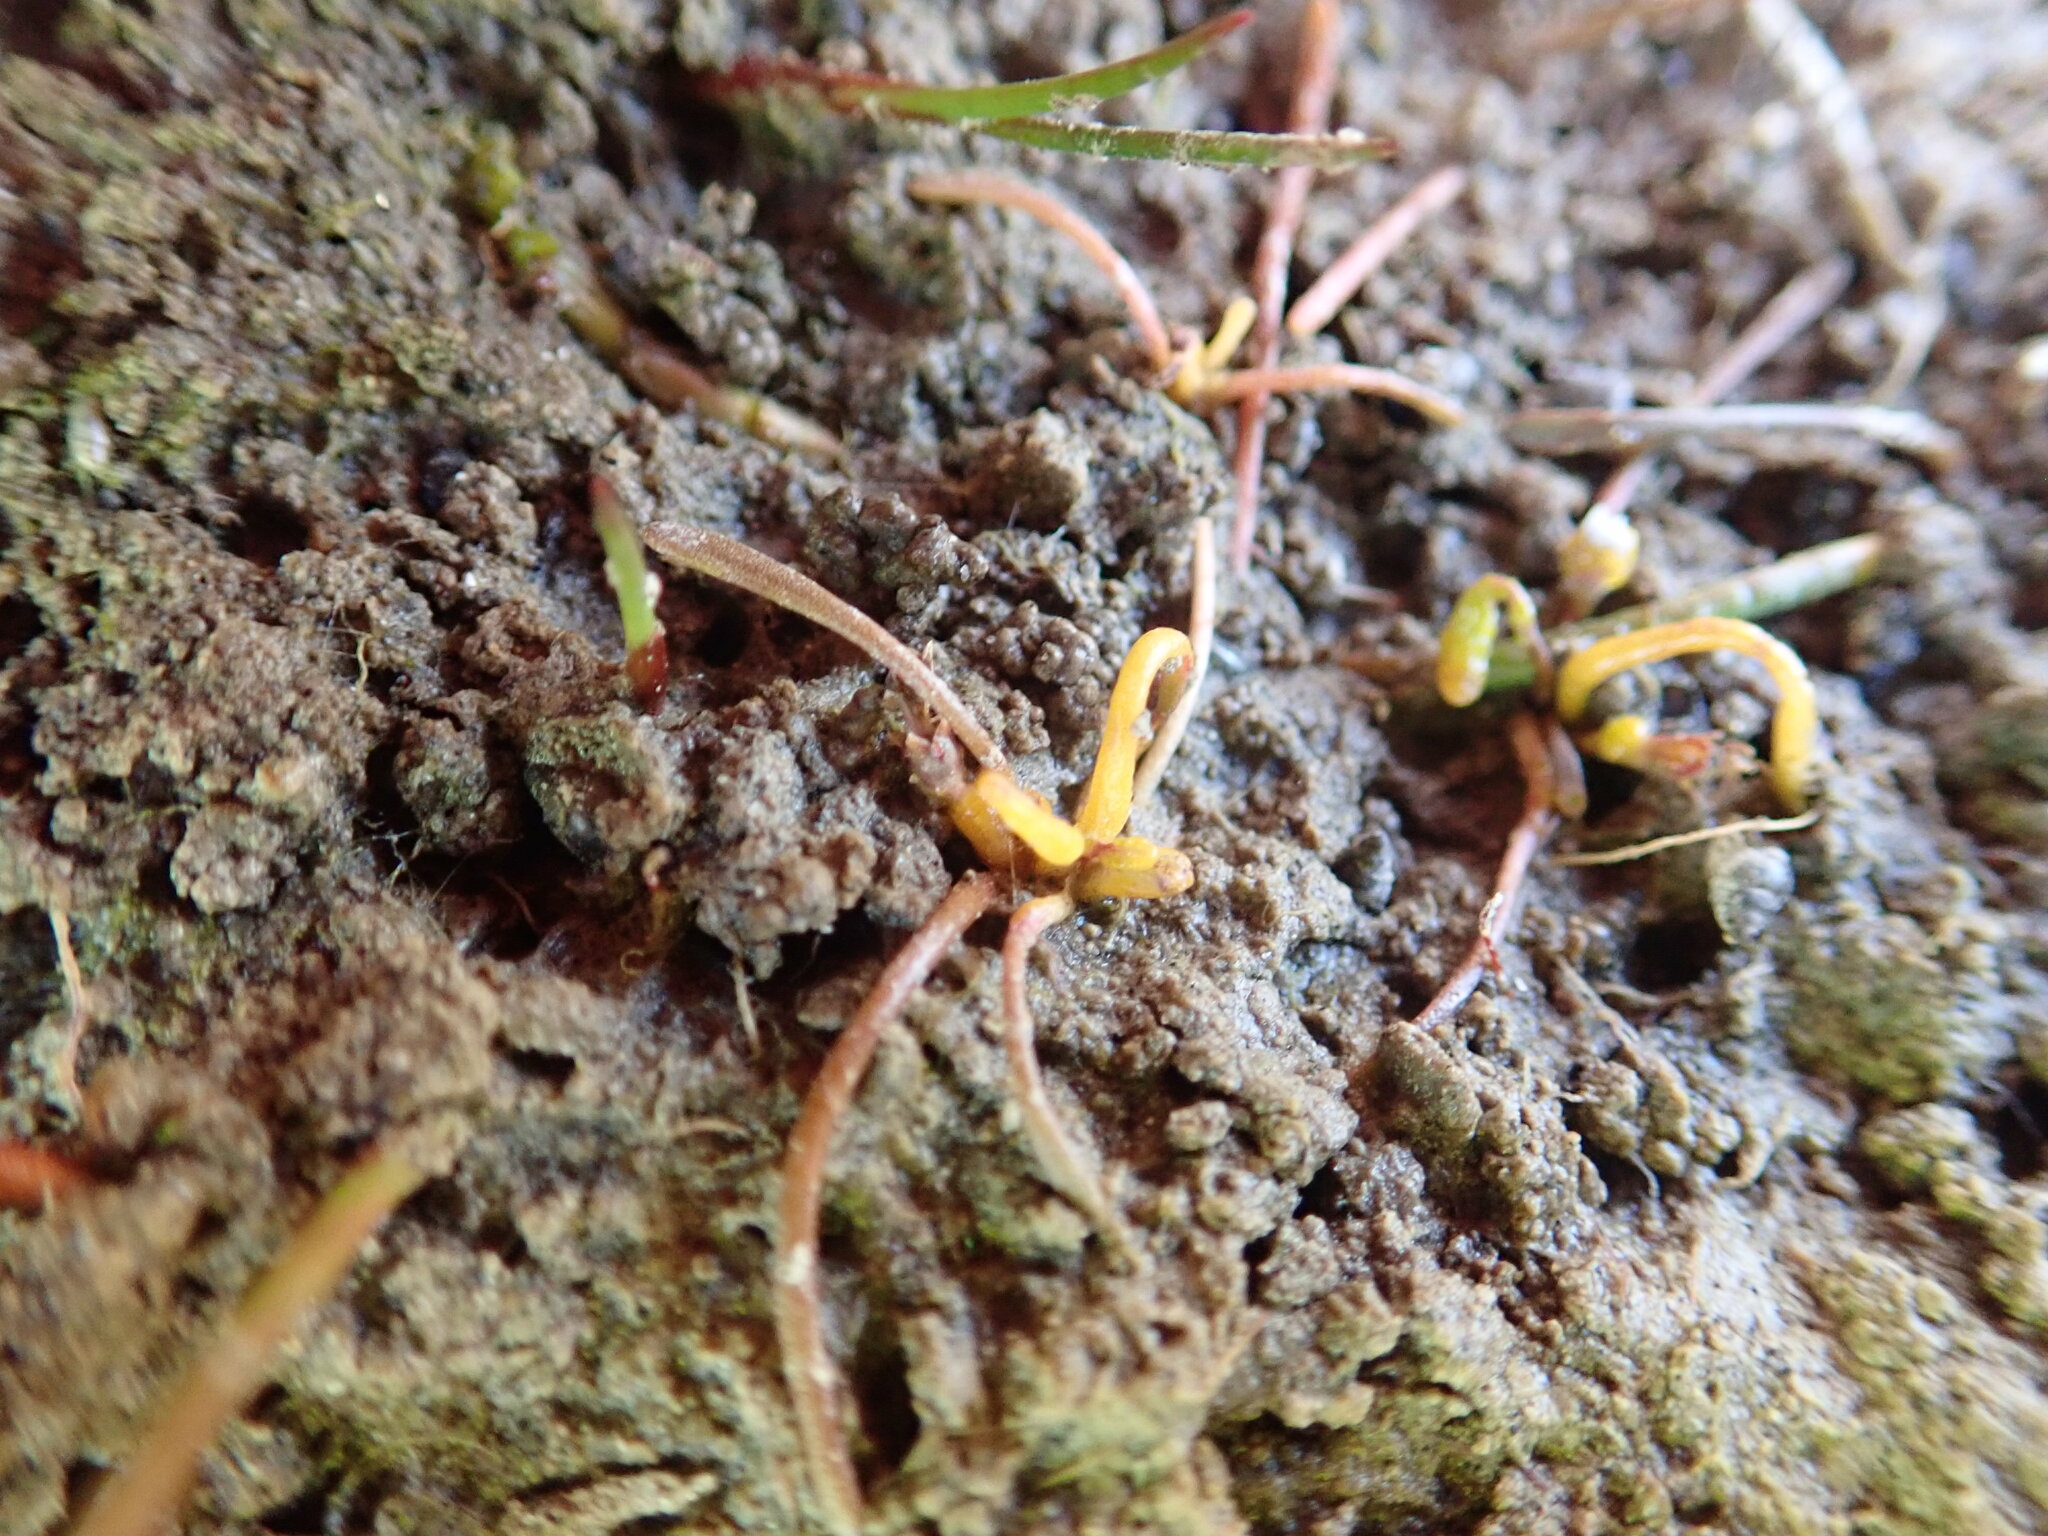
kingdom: Fungi
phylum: Chytridiomycota
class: Chytridiomycetes
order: Chytridiales
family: Synchytriaceae
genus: Synchytrium
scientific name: Synchytrium limosellae
